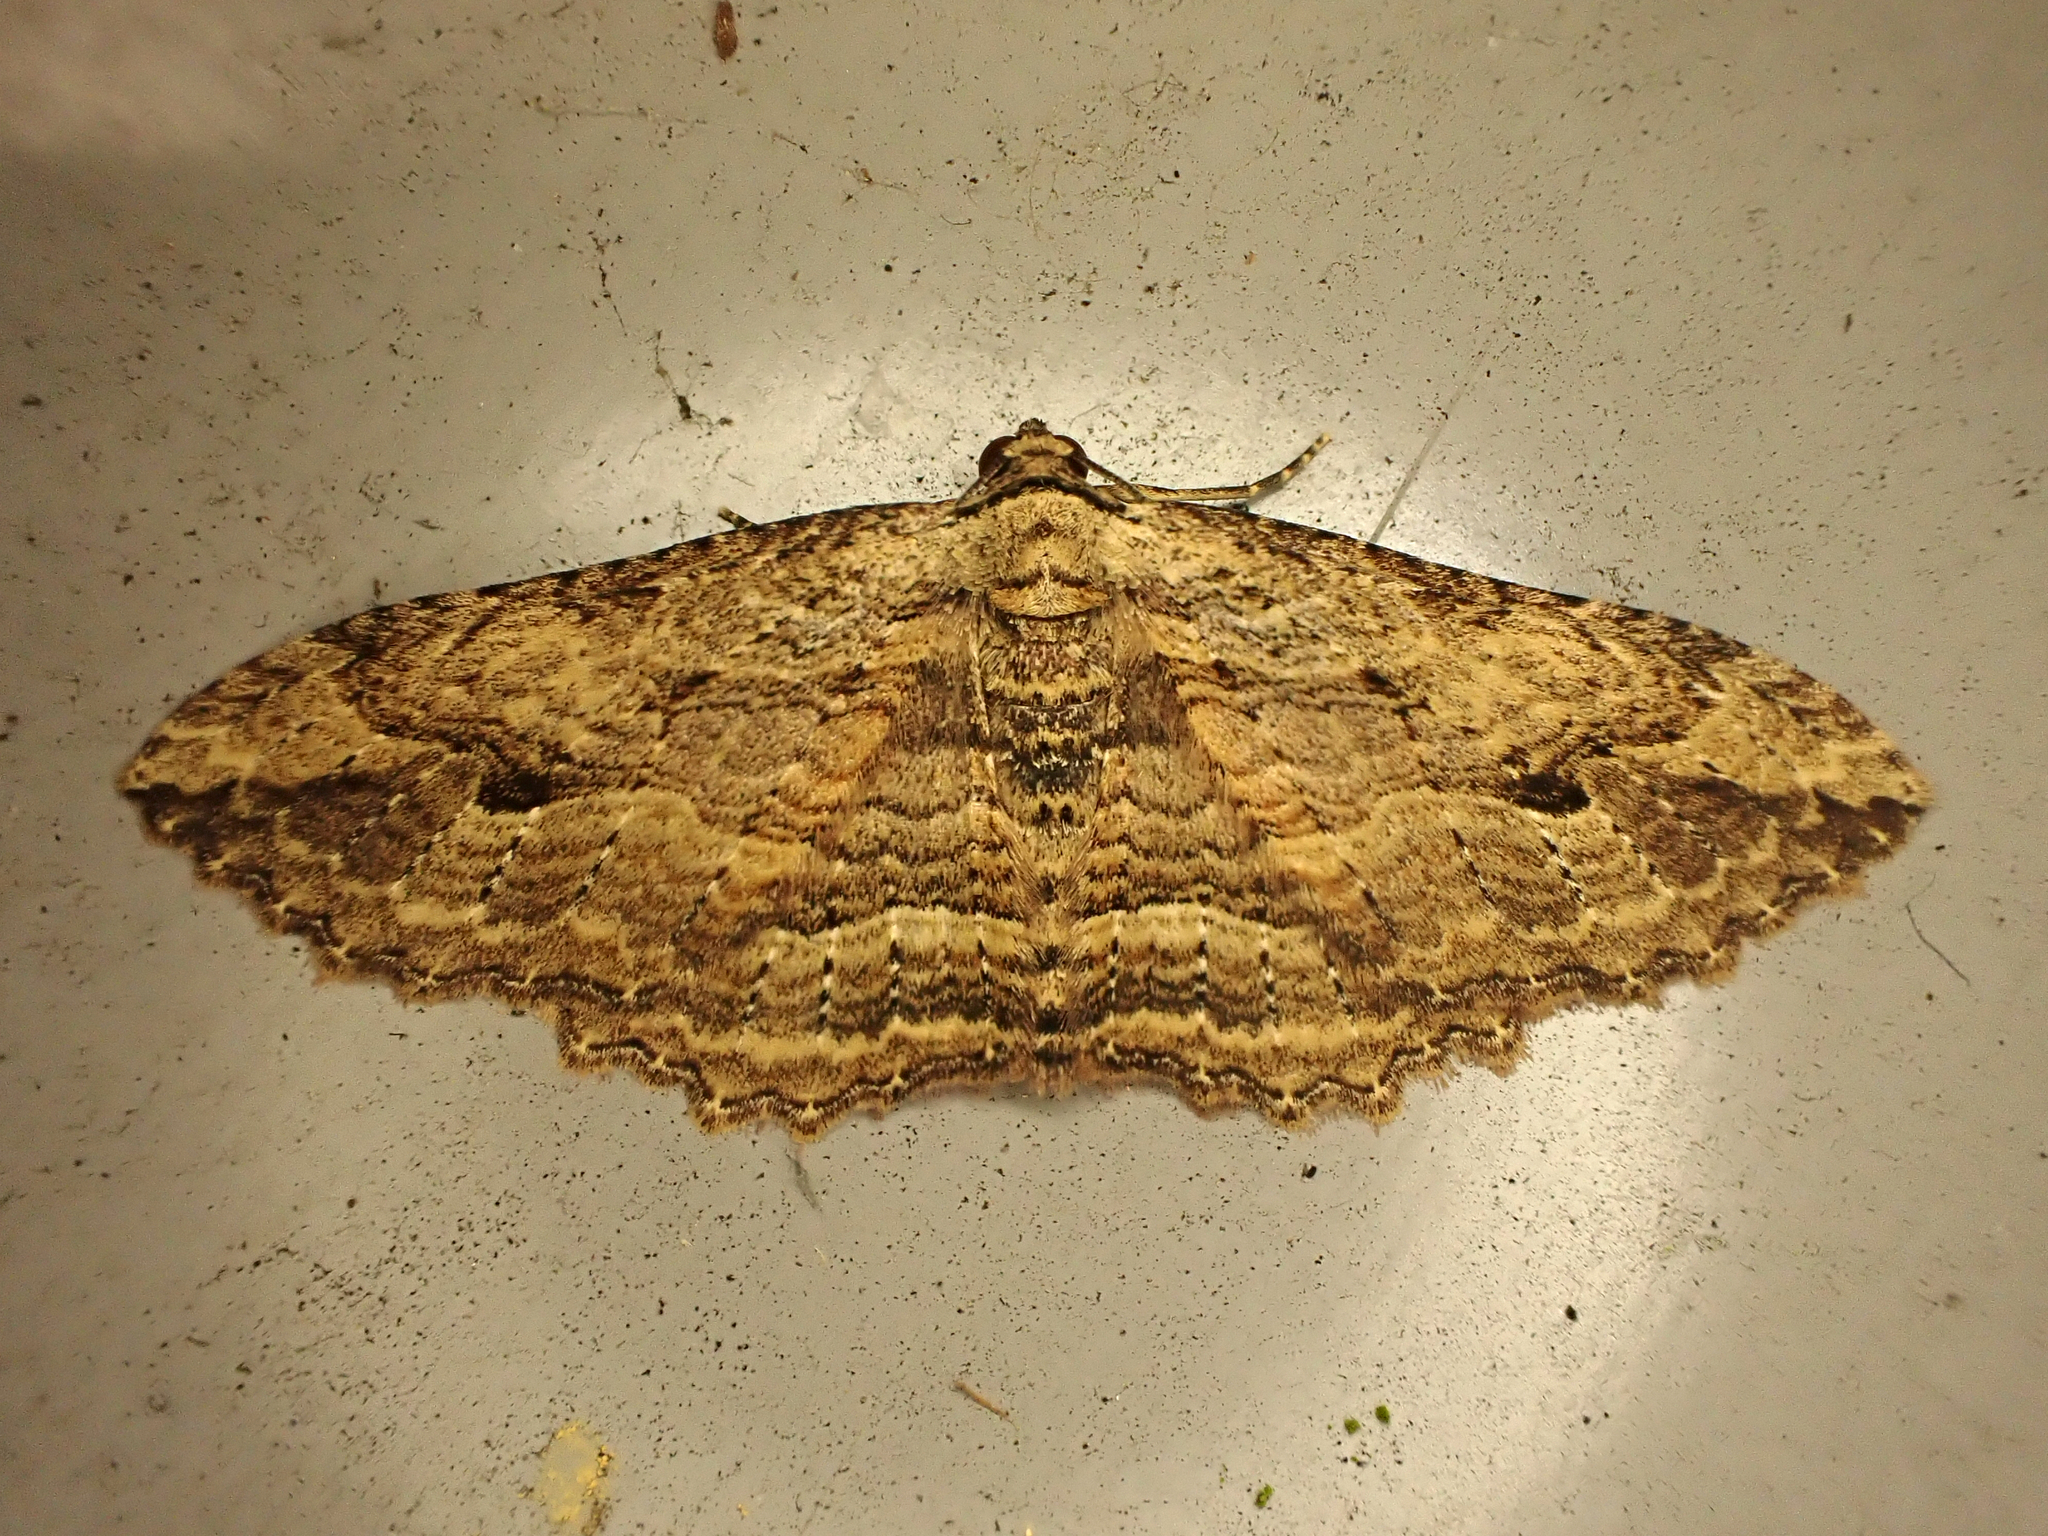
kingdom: Animalia
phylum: Arthropoda
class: Insecta
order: Lepidoptera
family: Geometridae
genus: Austrocidaria
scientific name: Austrocidaria bipartita
